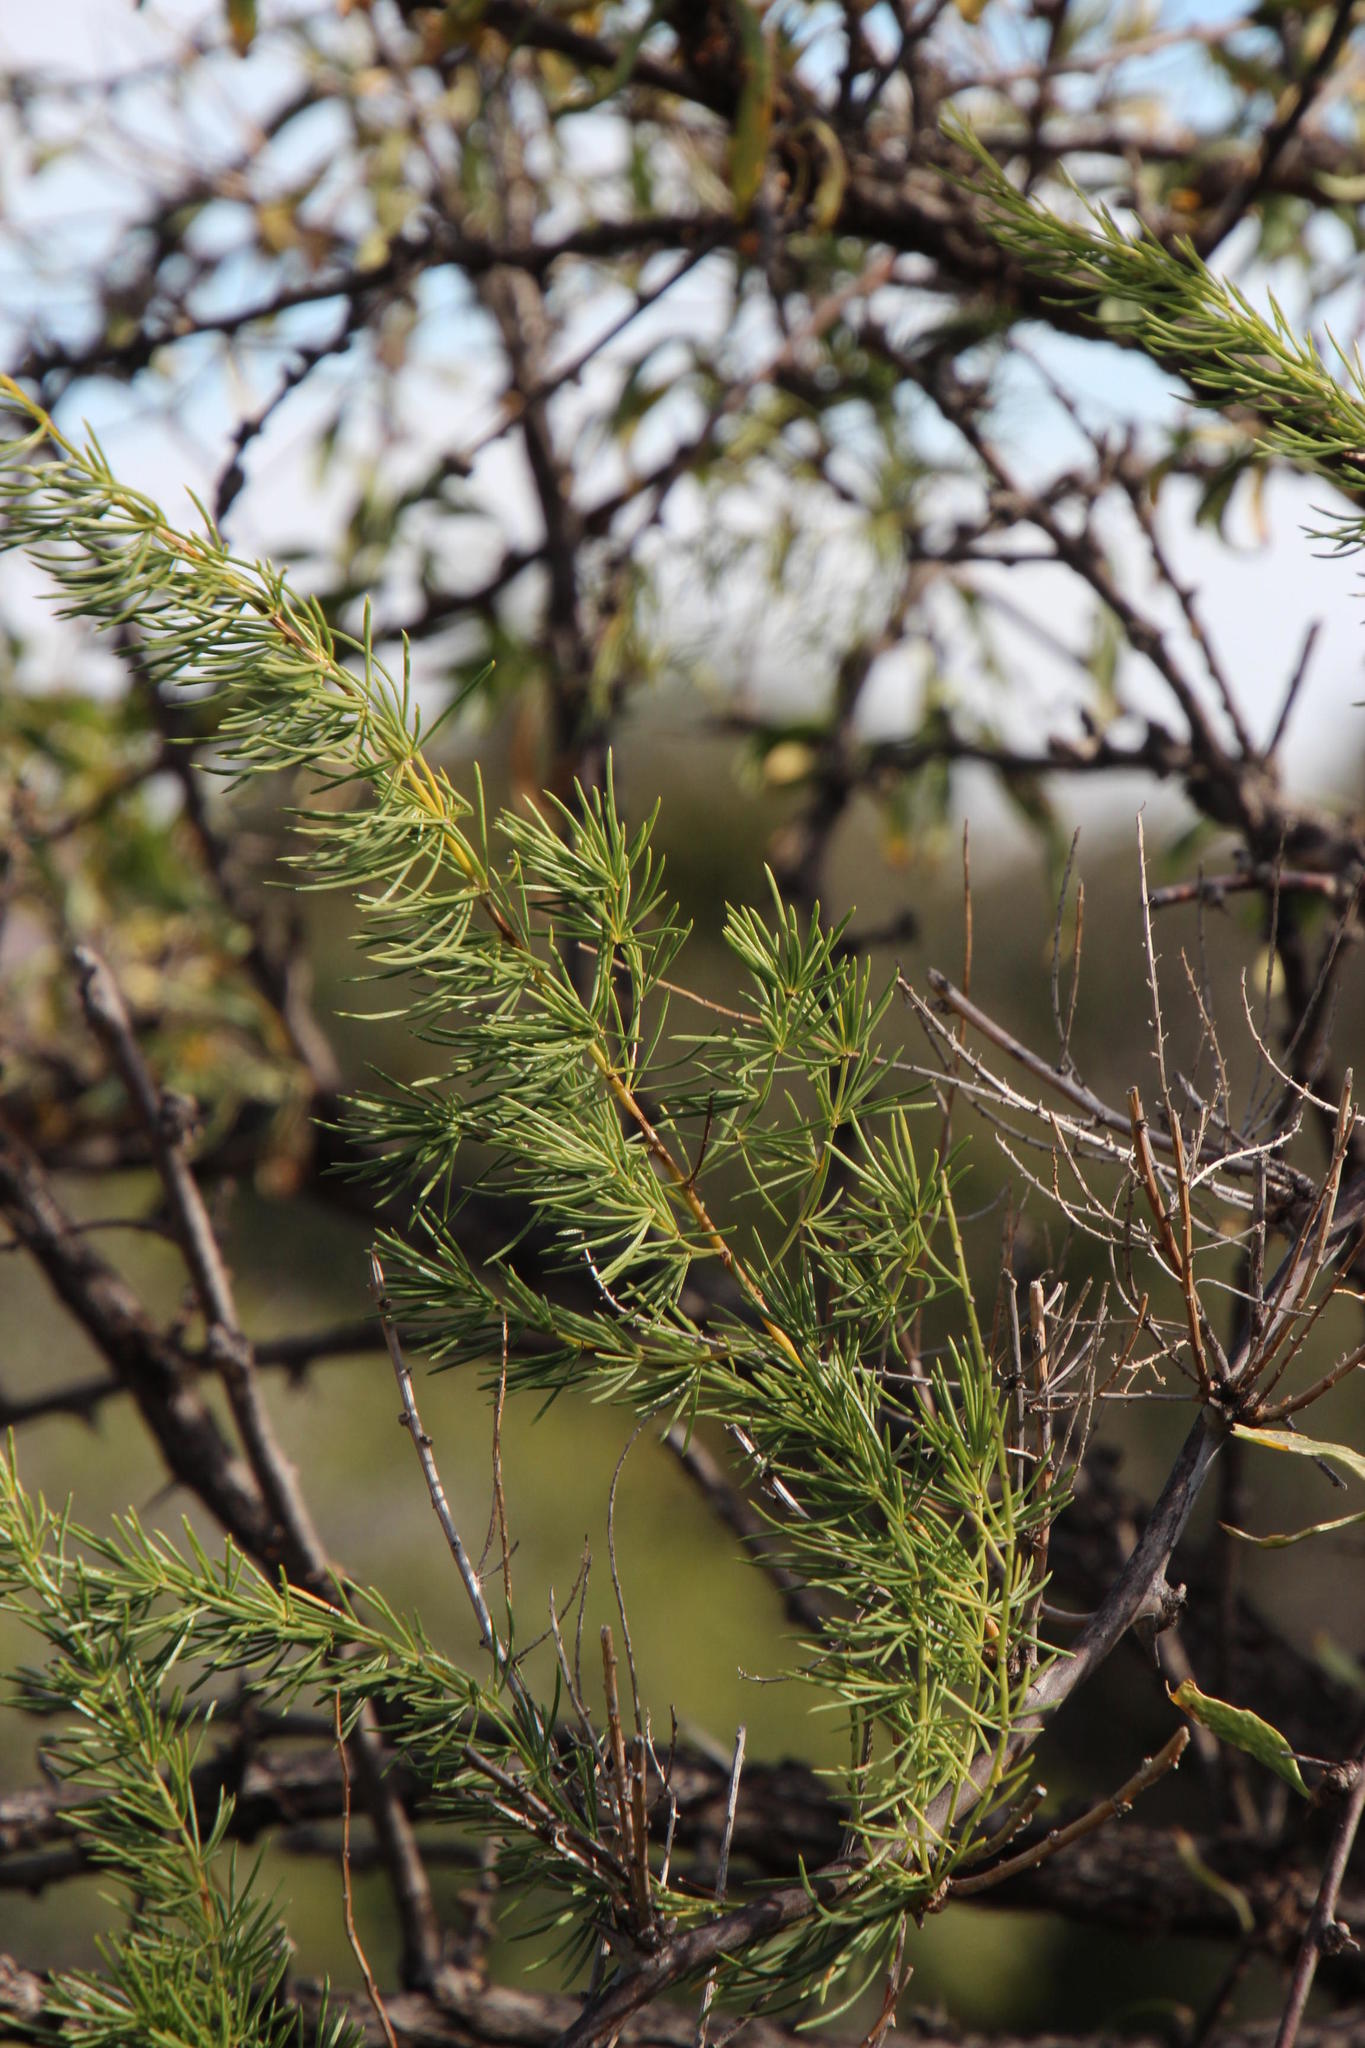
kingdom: Plantae
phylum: Tracheophyta
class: Liliopsida
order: Asparagales
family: Asparagaceae
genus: Asparagus
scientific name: Asparagus aethiopicus
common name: Sprenger's asparagus fern
